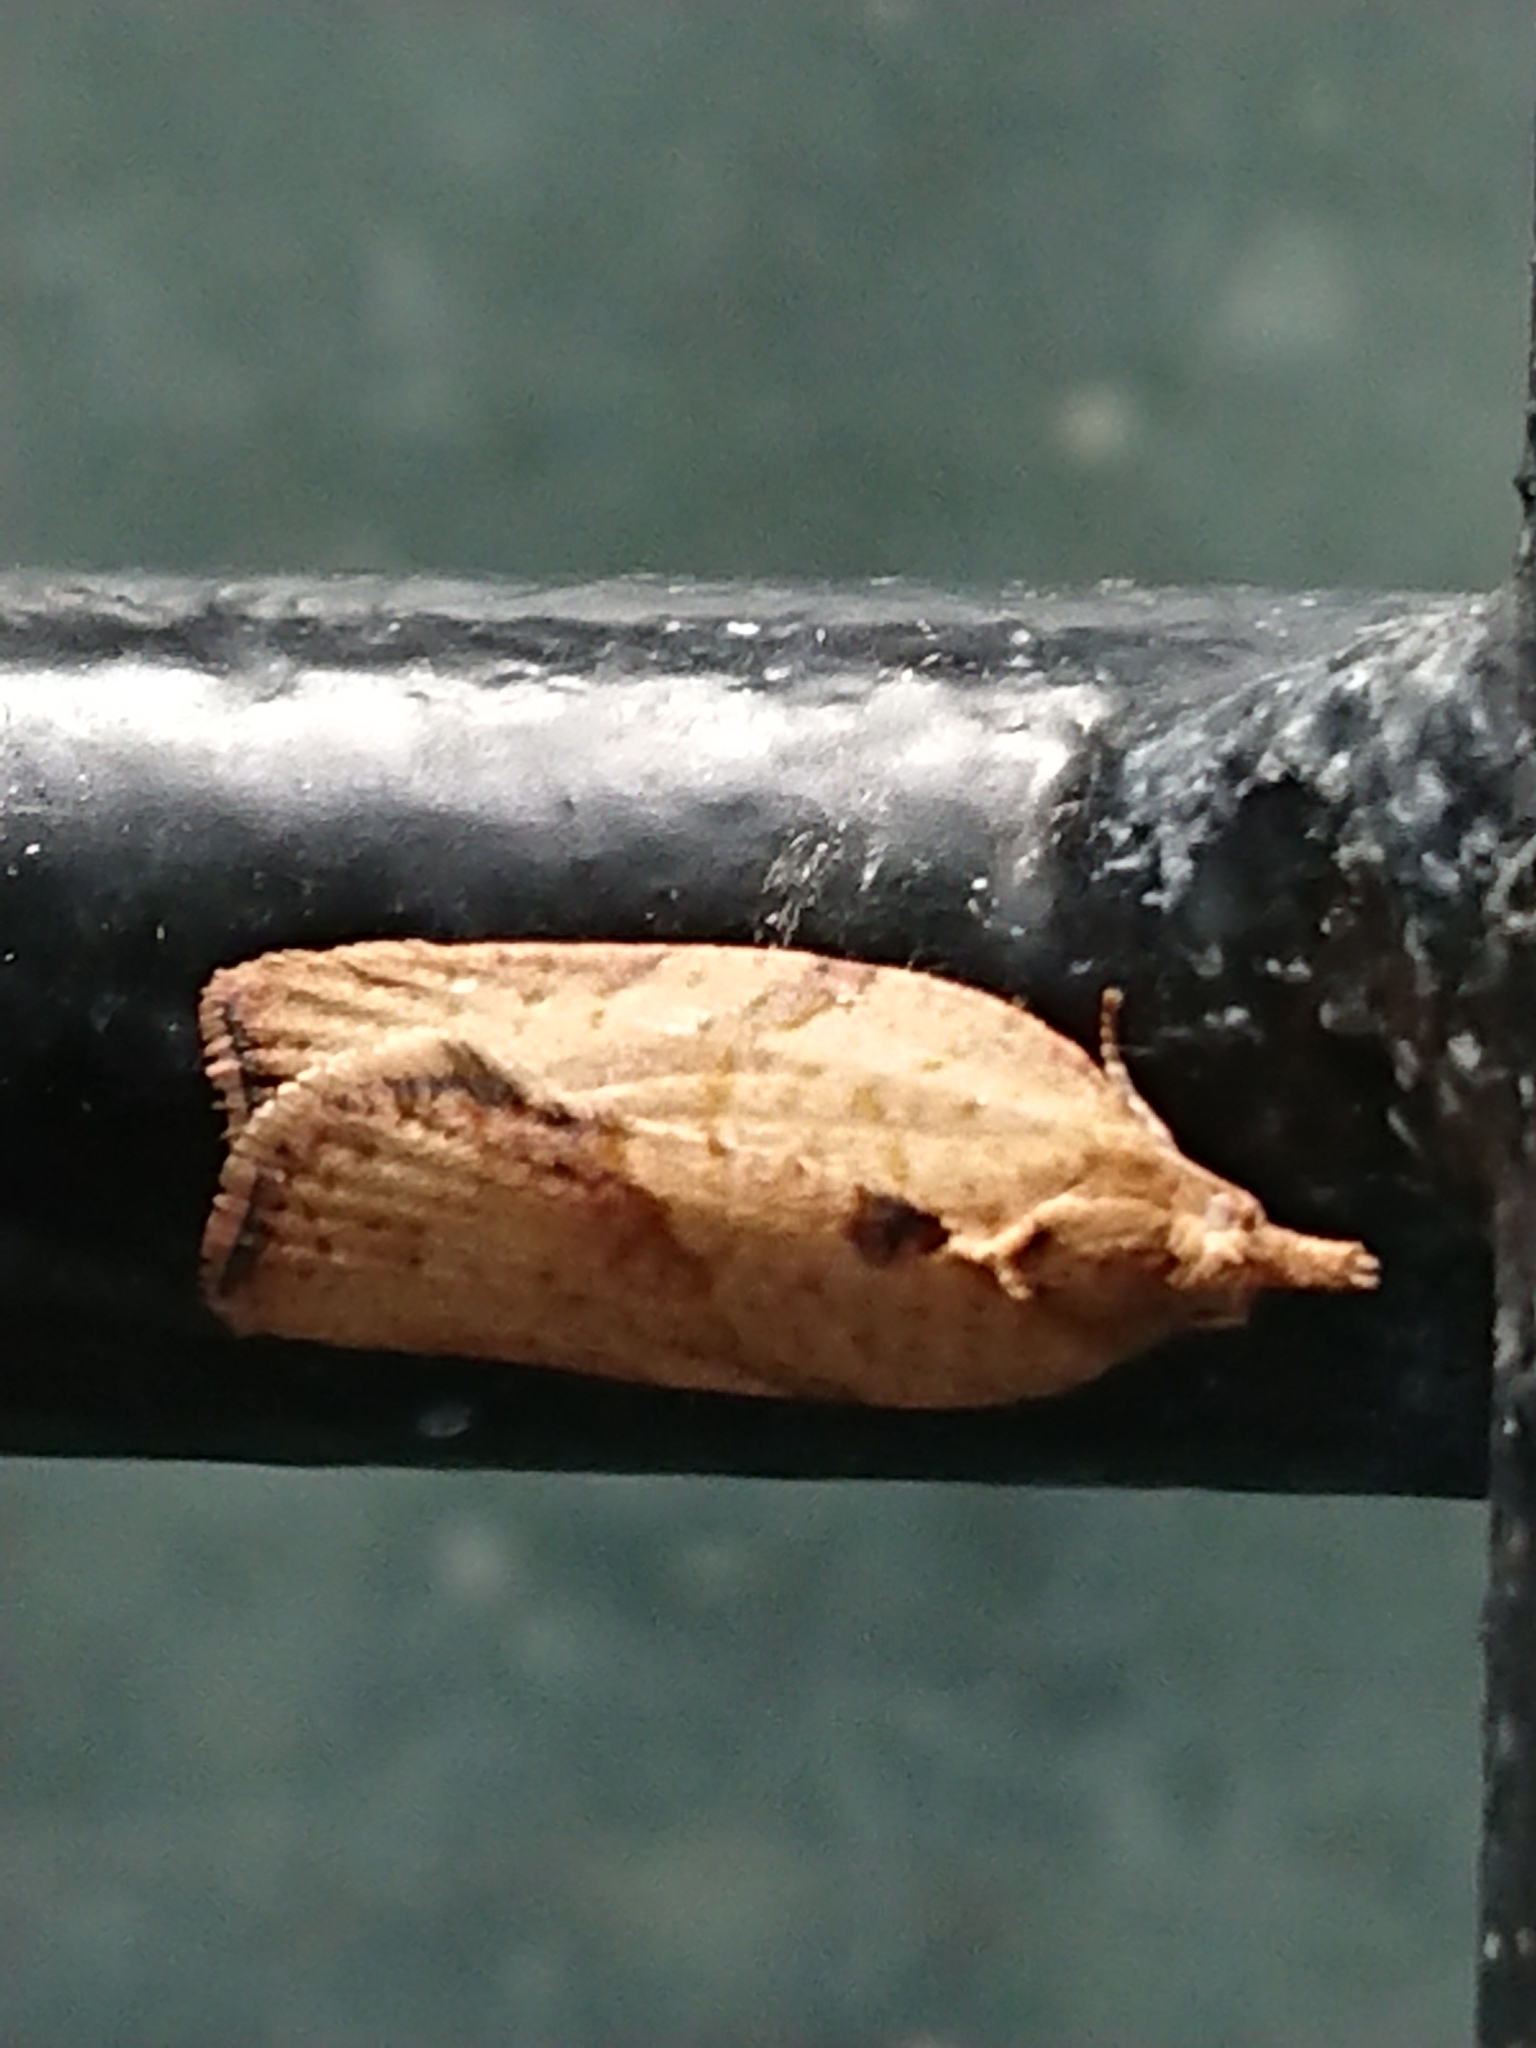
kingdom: Animalia
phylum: Arthropoda
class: Insecta
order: Lepidoptera
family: Tortricidae
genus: Epiphyas
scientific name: Epiphyas postvittana
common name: Light brown apple moth
